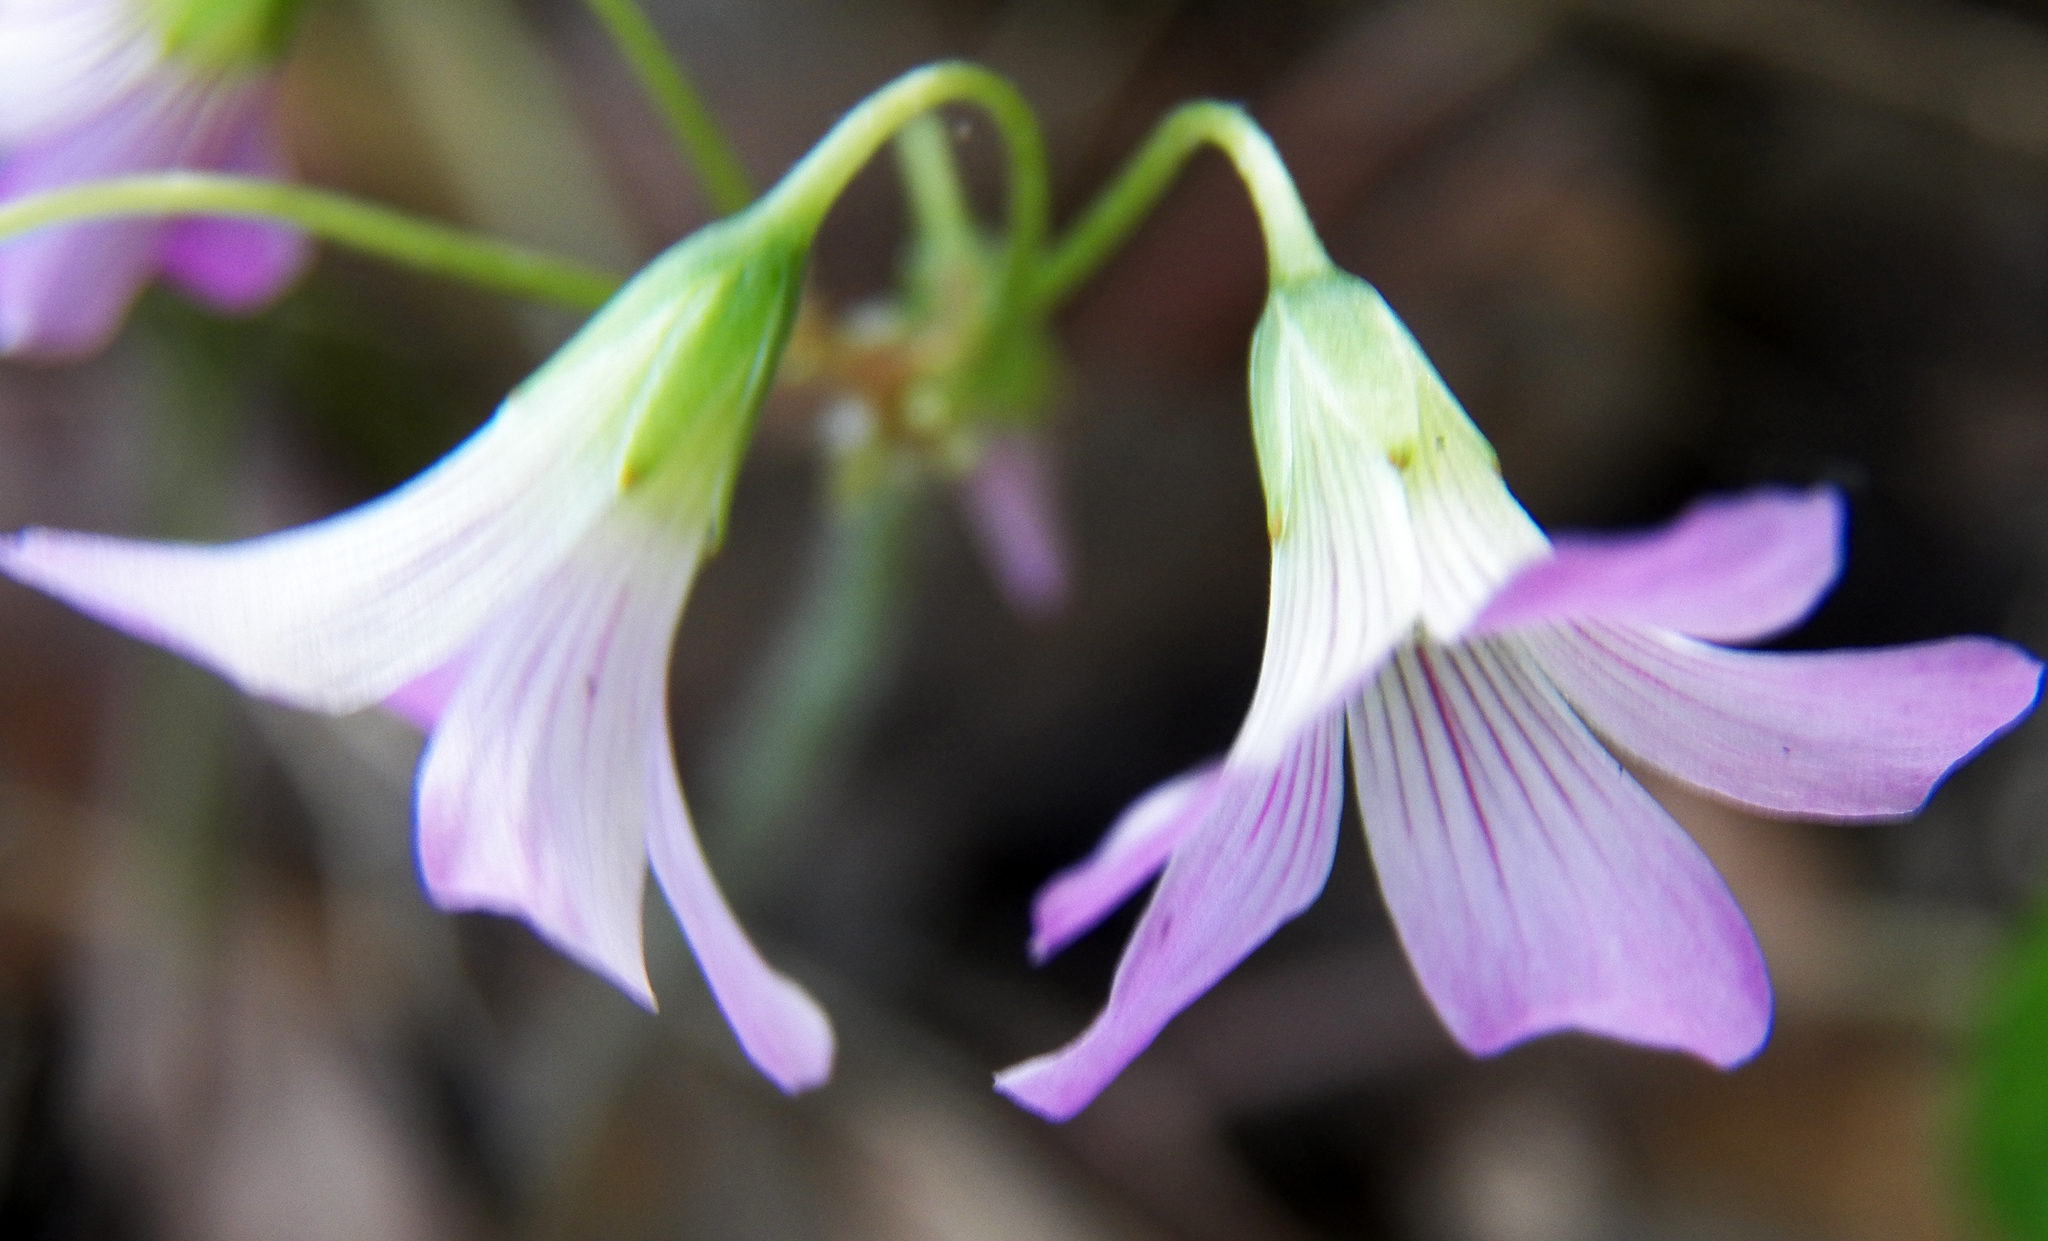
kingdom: Plantae
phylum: Tracheophyta
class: Magnoliopsida
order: Oxalidales
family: Oxalidaceae
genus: Oxalis
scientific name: Oxalis debilis
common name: Large-flowered pink-sorrel
